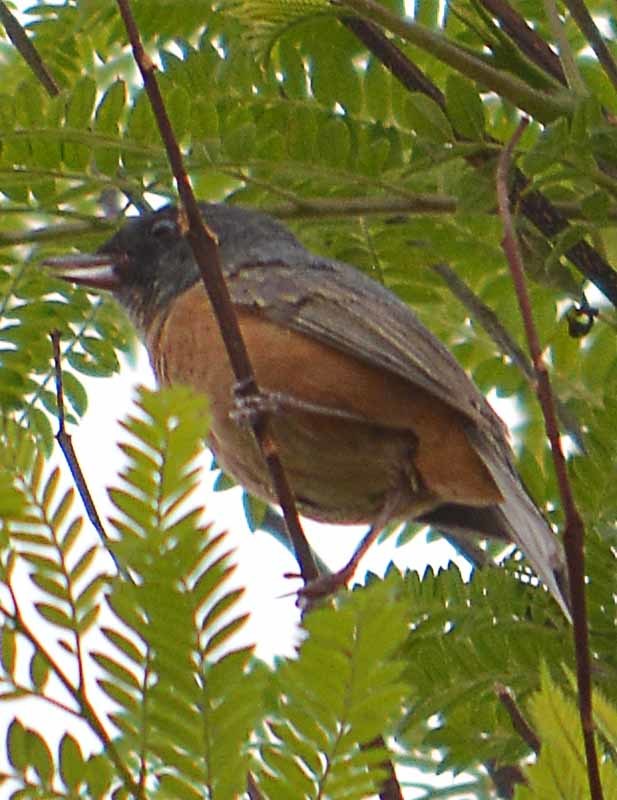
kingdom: Animalia
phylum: Chordata
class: Aves
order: Passeriformes
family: Thraupidae
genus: Diglossa
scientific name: Diglossa baritula
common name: Cinnamon-bellied flowerpiercer
